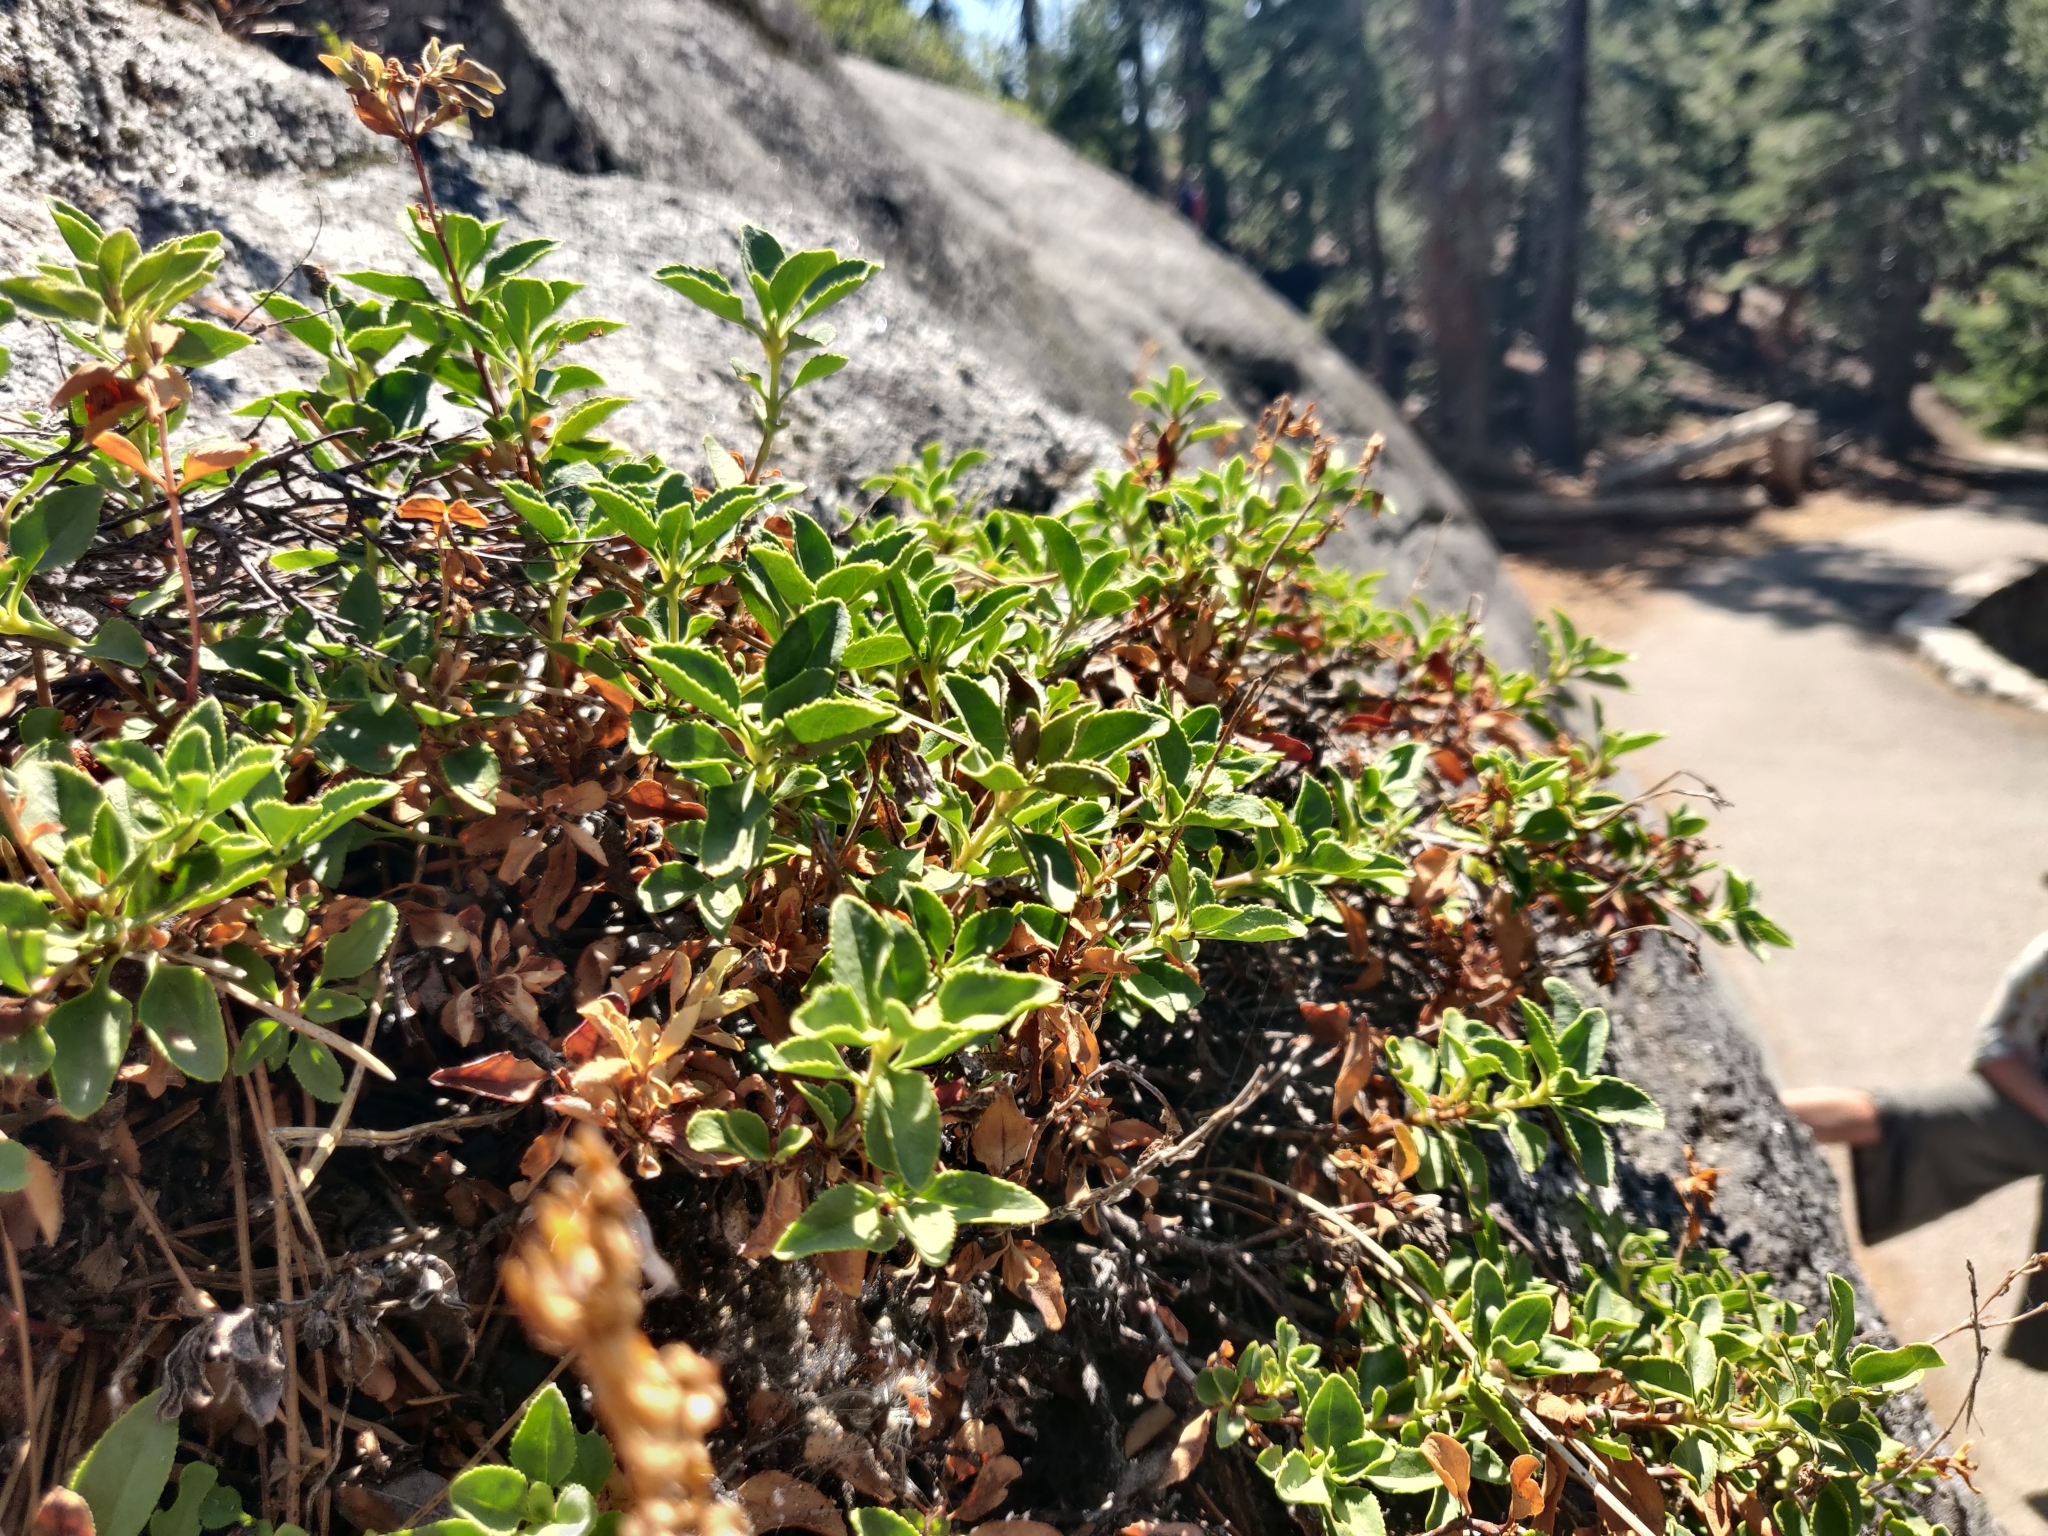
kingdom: Plantae
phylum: Tracheophyta
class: Magnoliopsida
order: Lamiales
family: Plantaginaceae
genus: Penstemon
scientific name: Penstemon newberryi
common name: Mountain-pride
